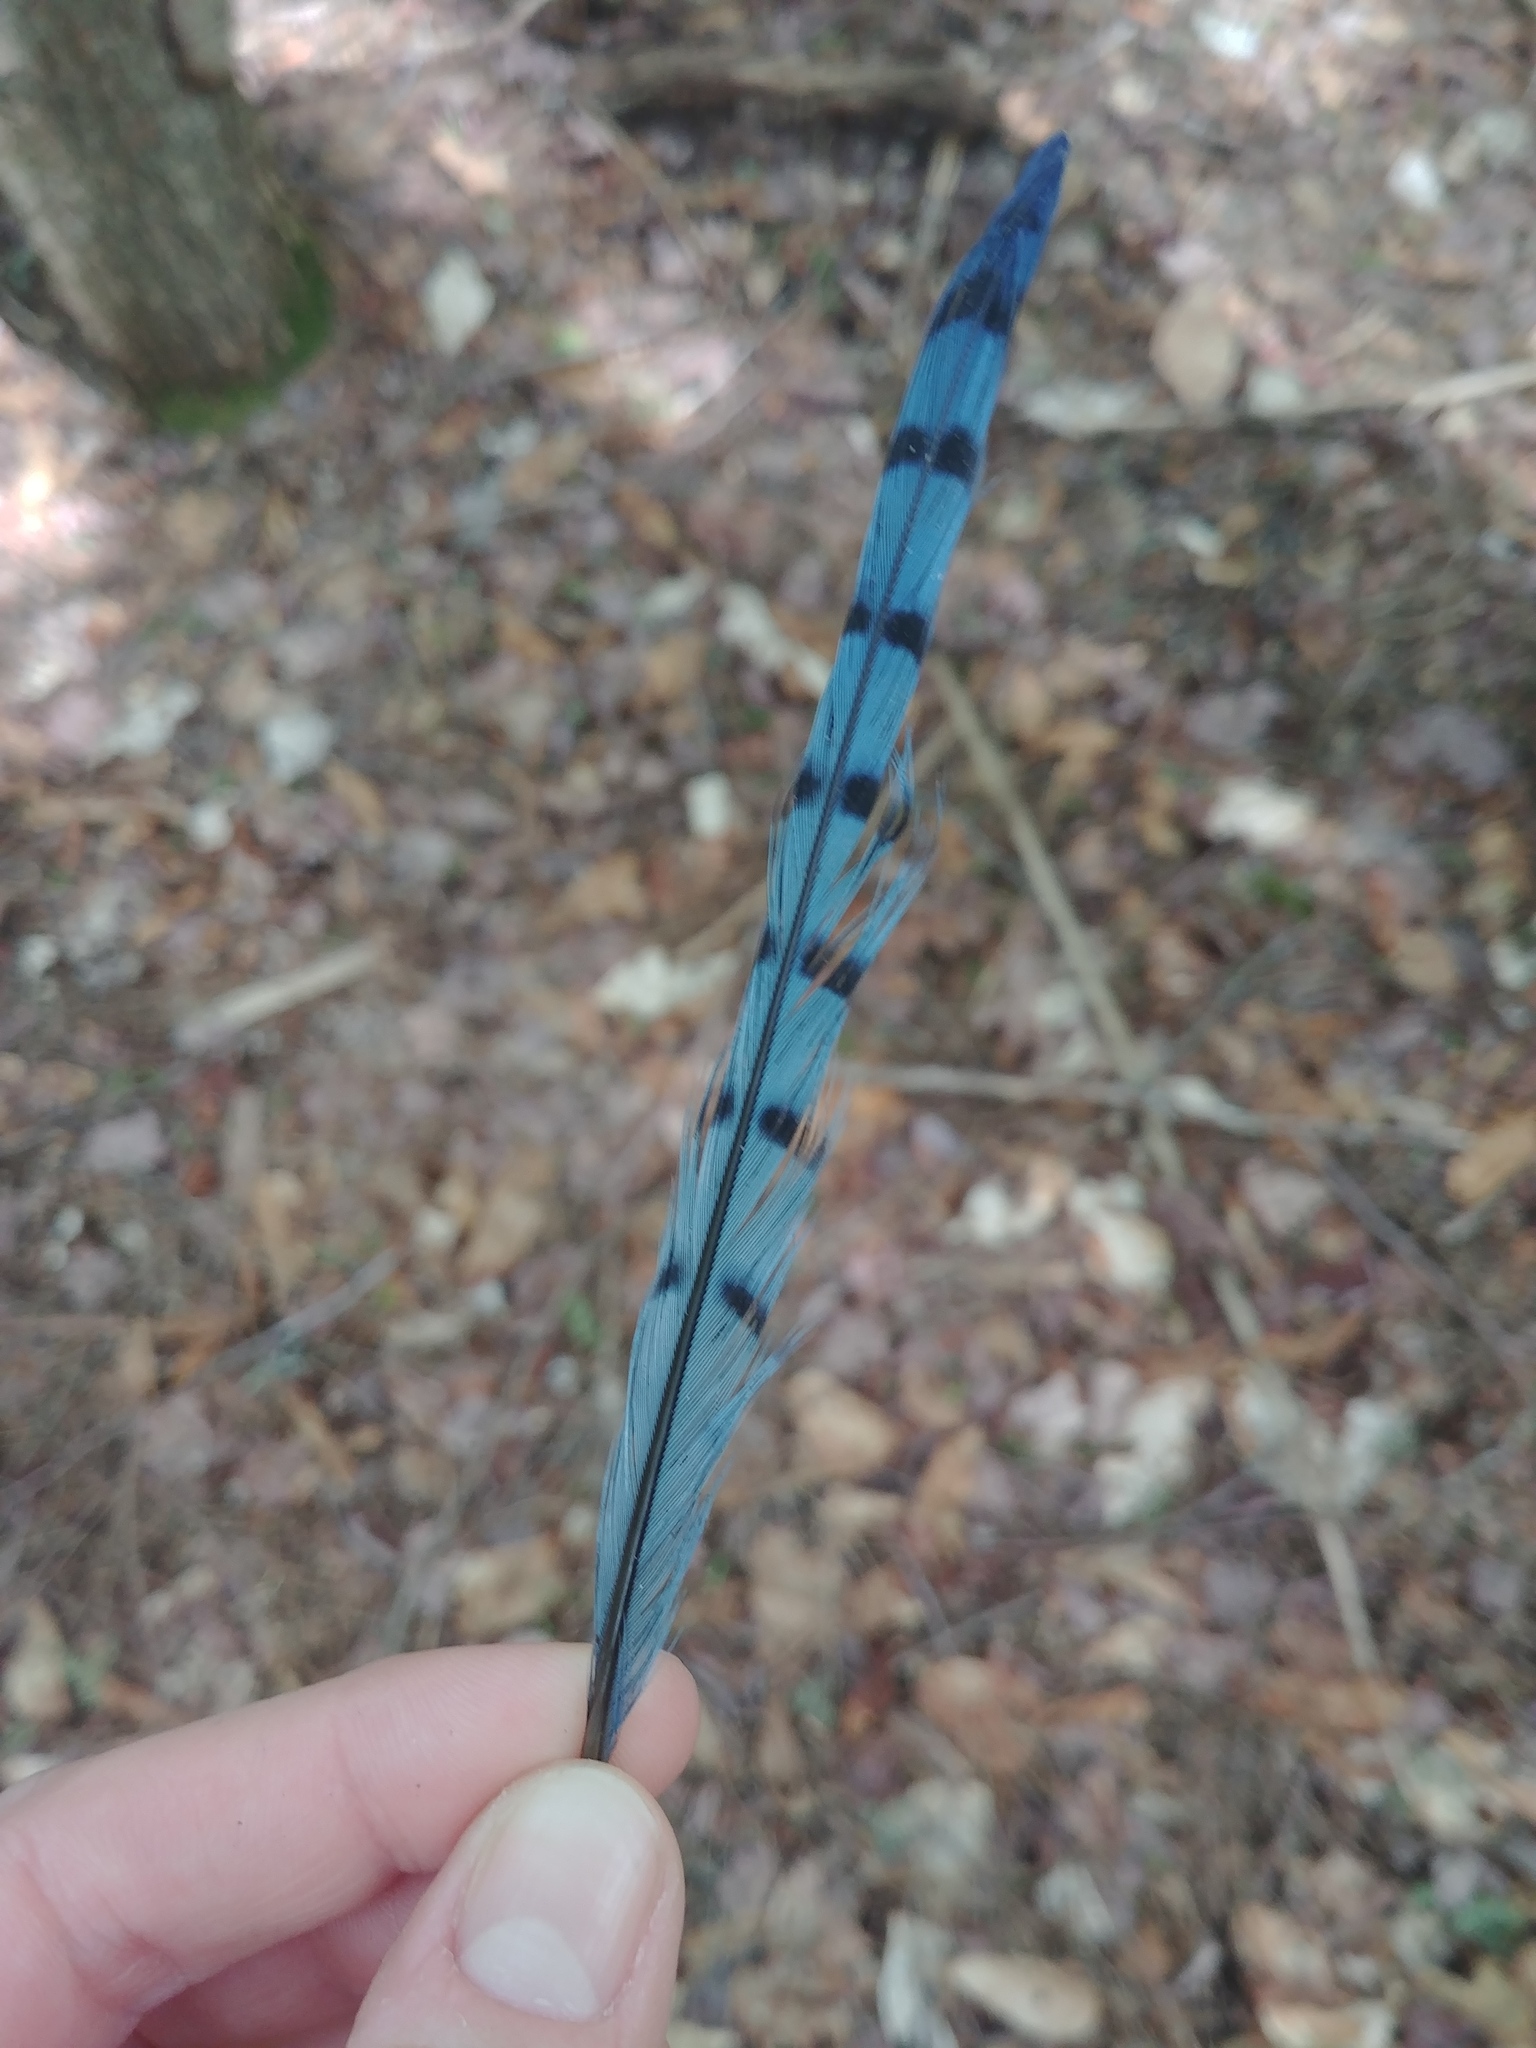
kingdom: Animalia
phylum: Chordata
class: Aves
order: Passeriformes
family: Corvidae
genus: Cyanocitta
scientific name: Cyanocitta cristata
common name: Blue jay
